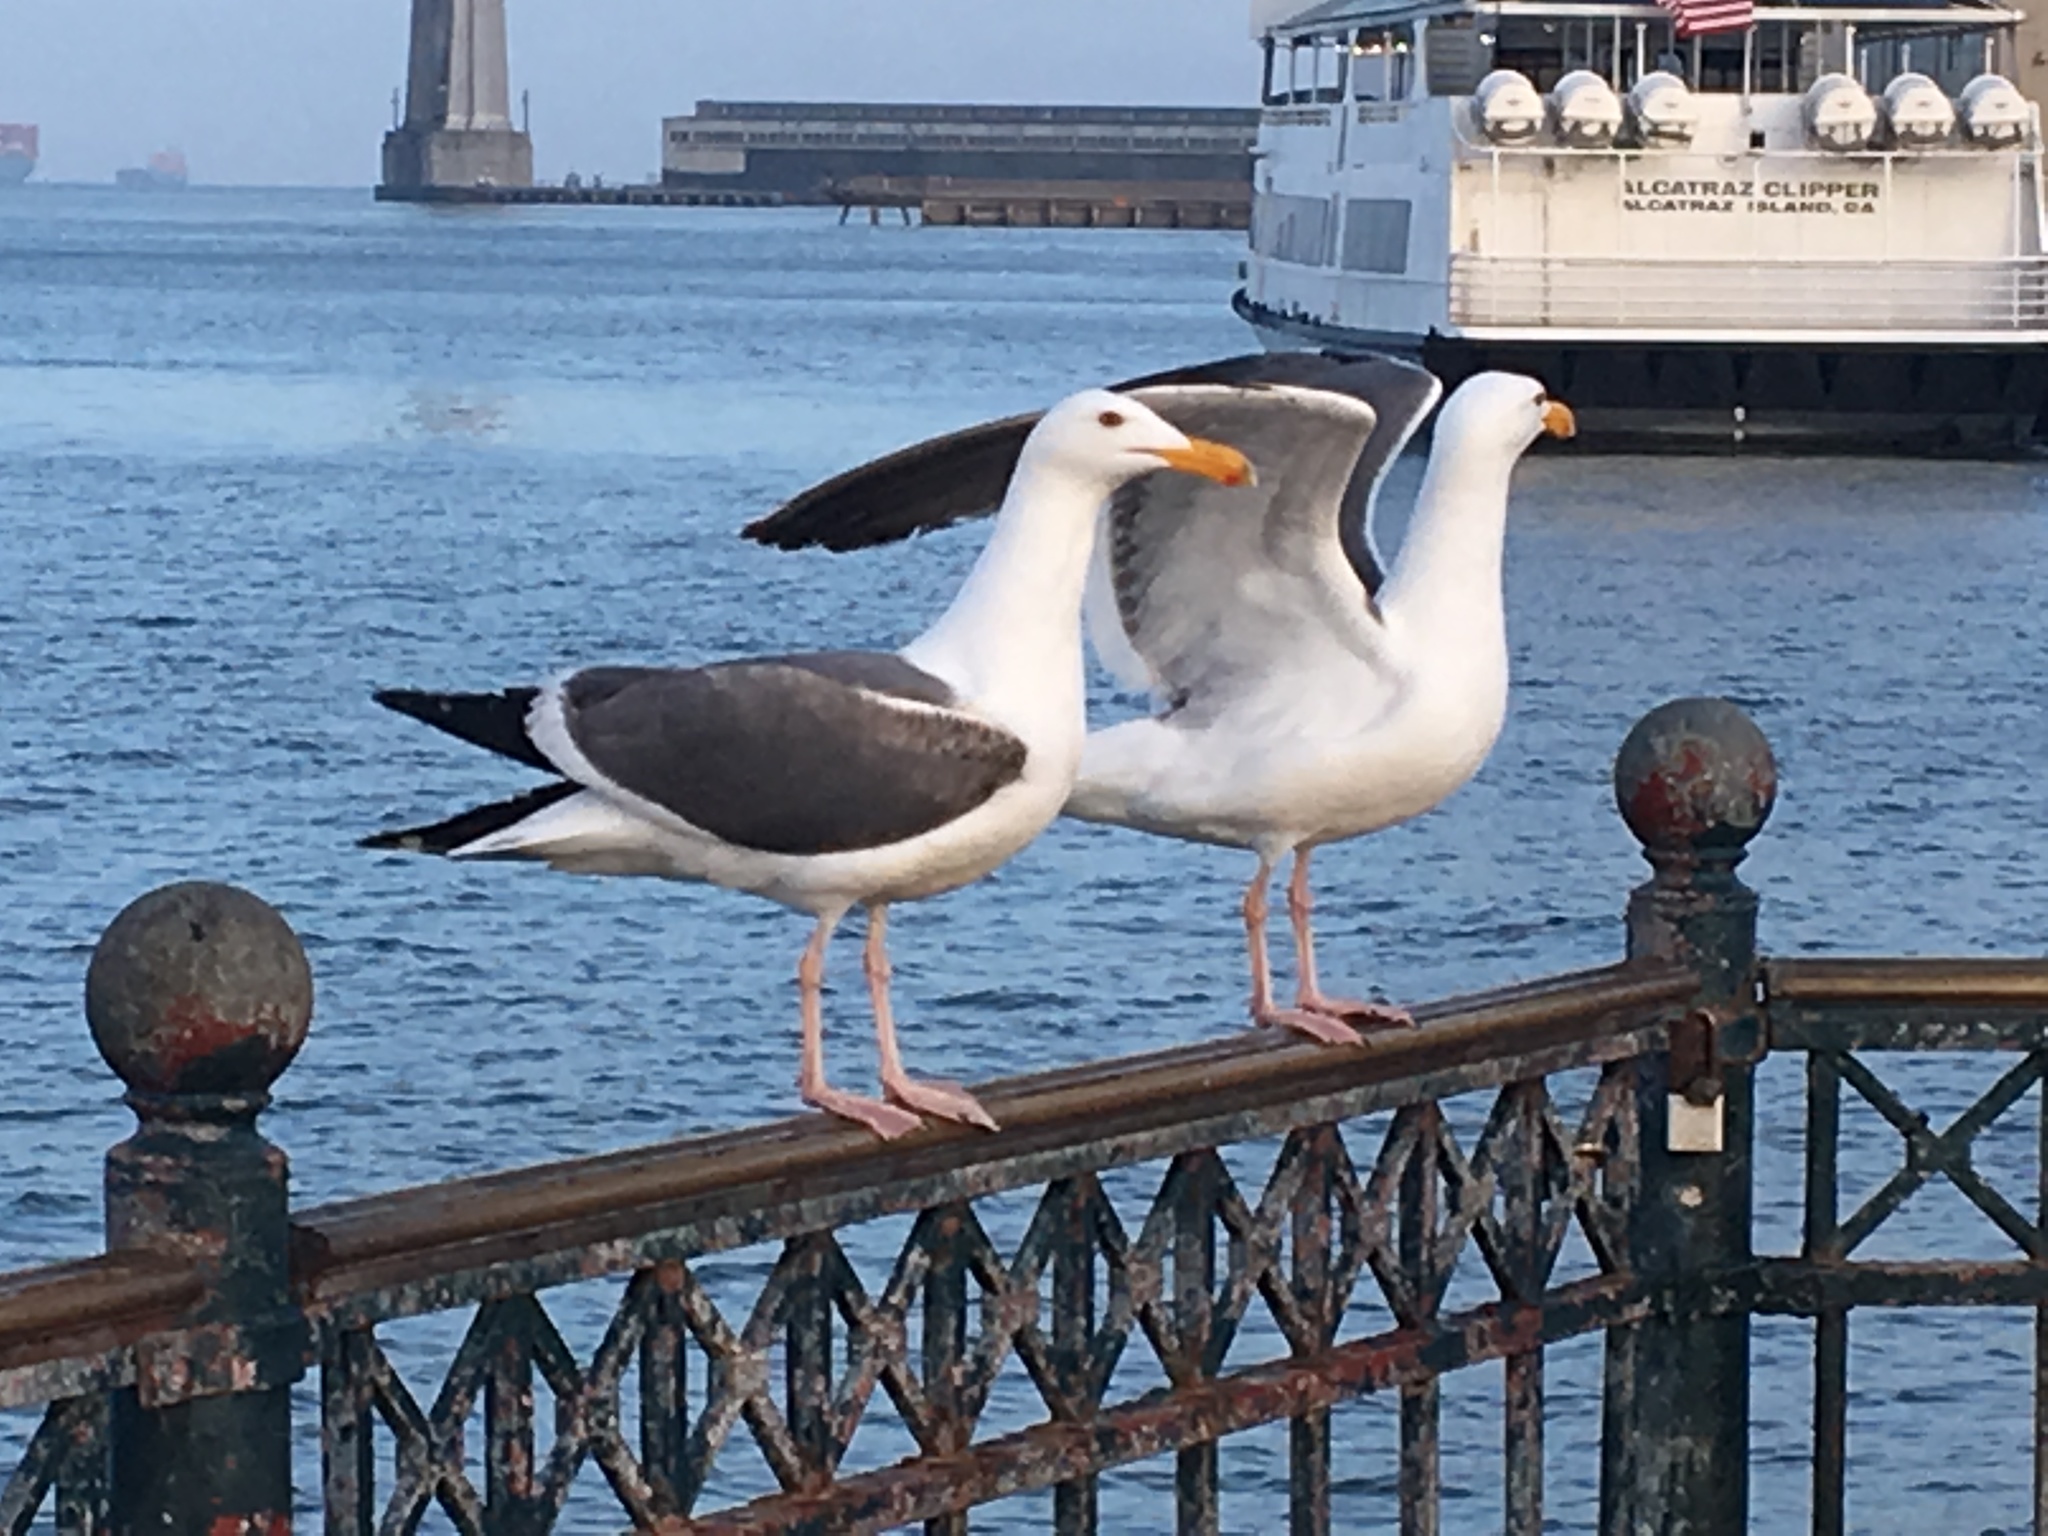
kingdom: Animalia
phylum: Chordata
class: Aves
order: Charadriiformes
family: Laridae
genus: Larus
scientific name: Larus occidentalis
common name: Western gull
